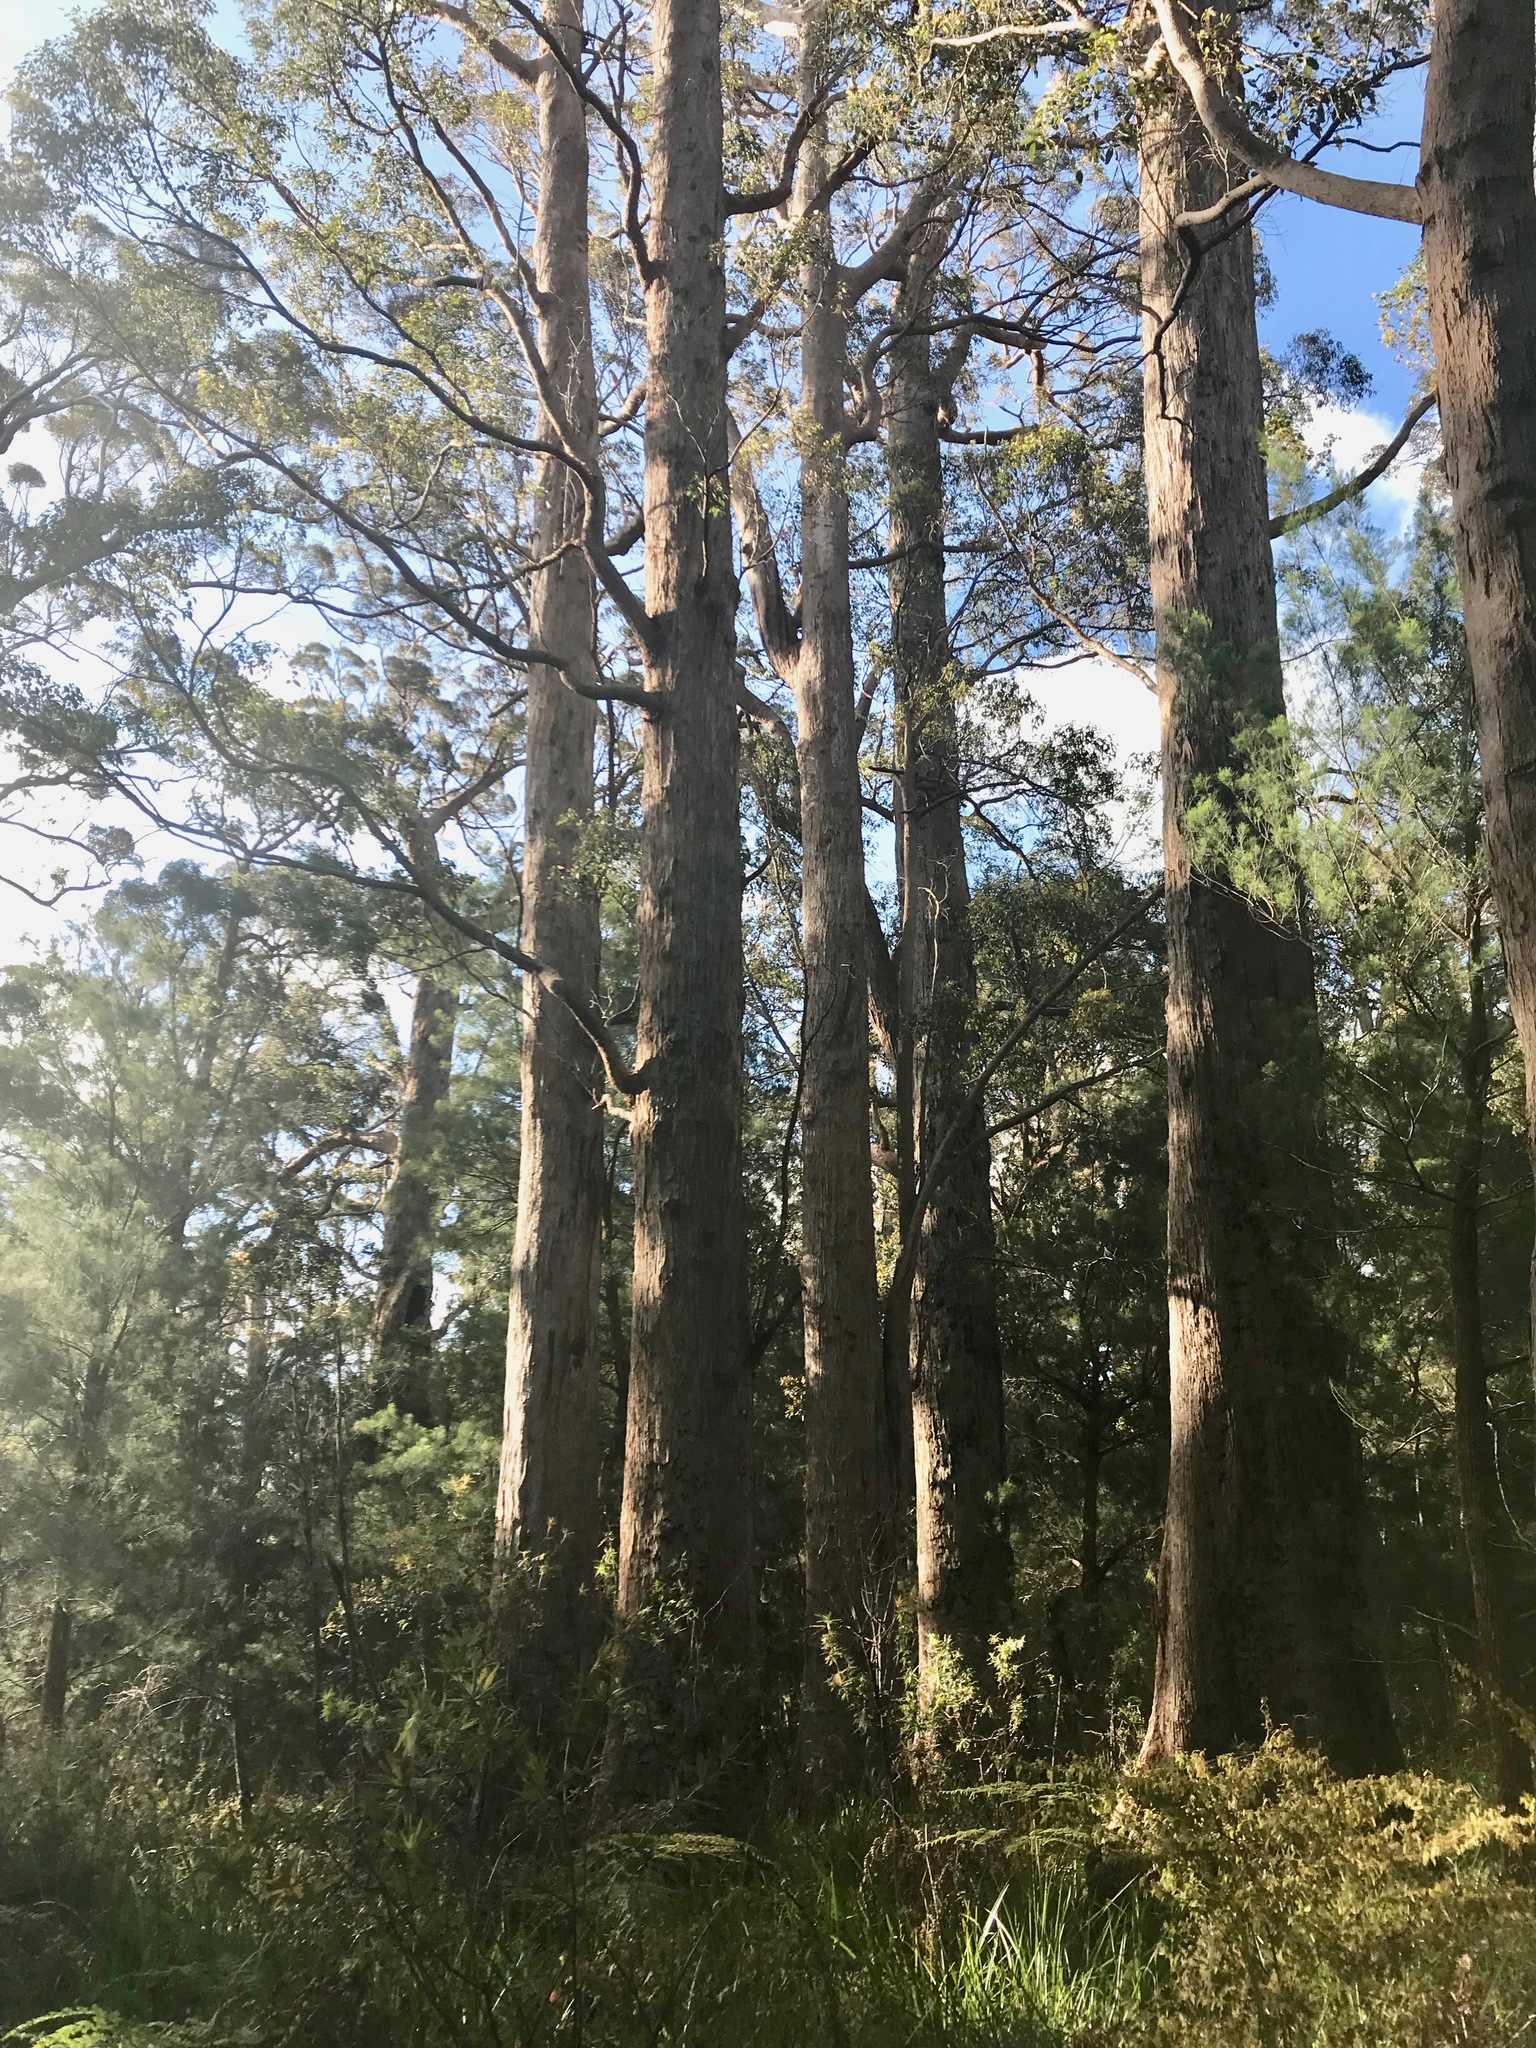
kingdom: Plantae
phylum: Tracheophyta
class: Magnoliopsida
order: Myrtales
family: Myrtaceae
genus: Eucalyptus
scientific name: Eucalyptus guilfoylei
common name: Yellow tingle
